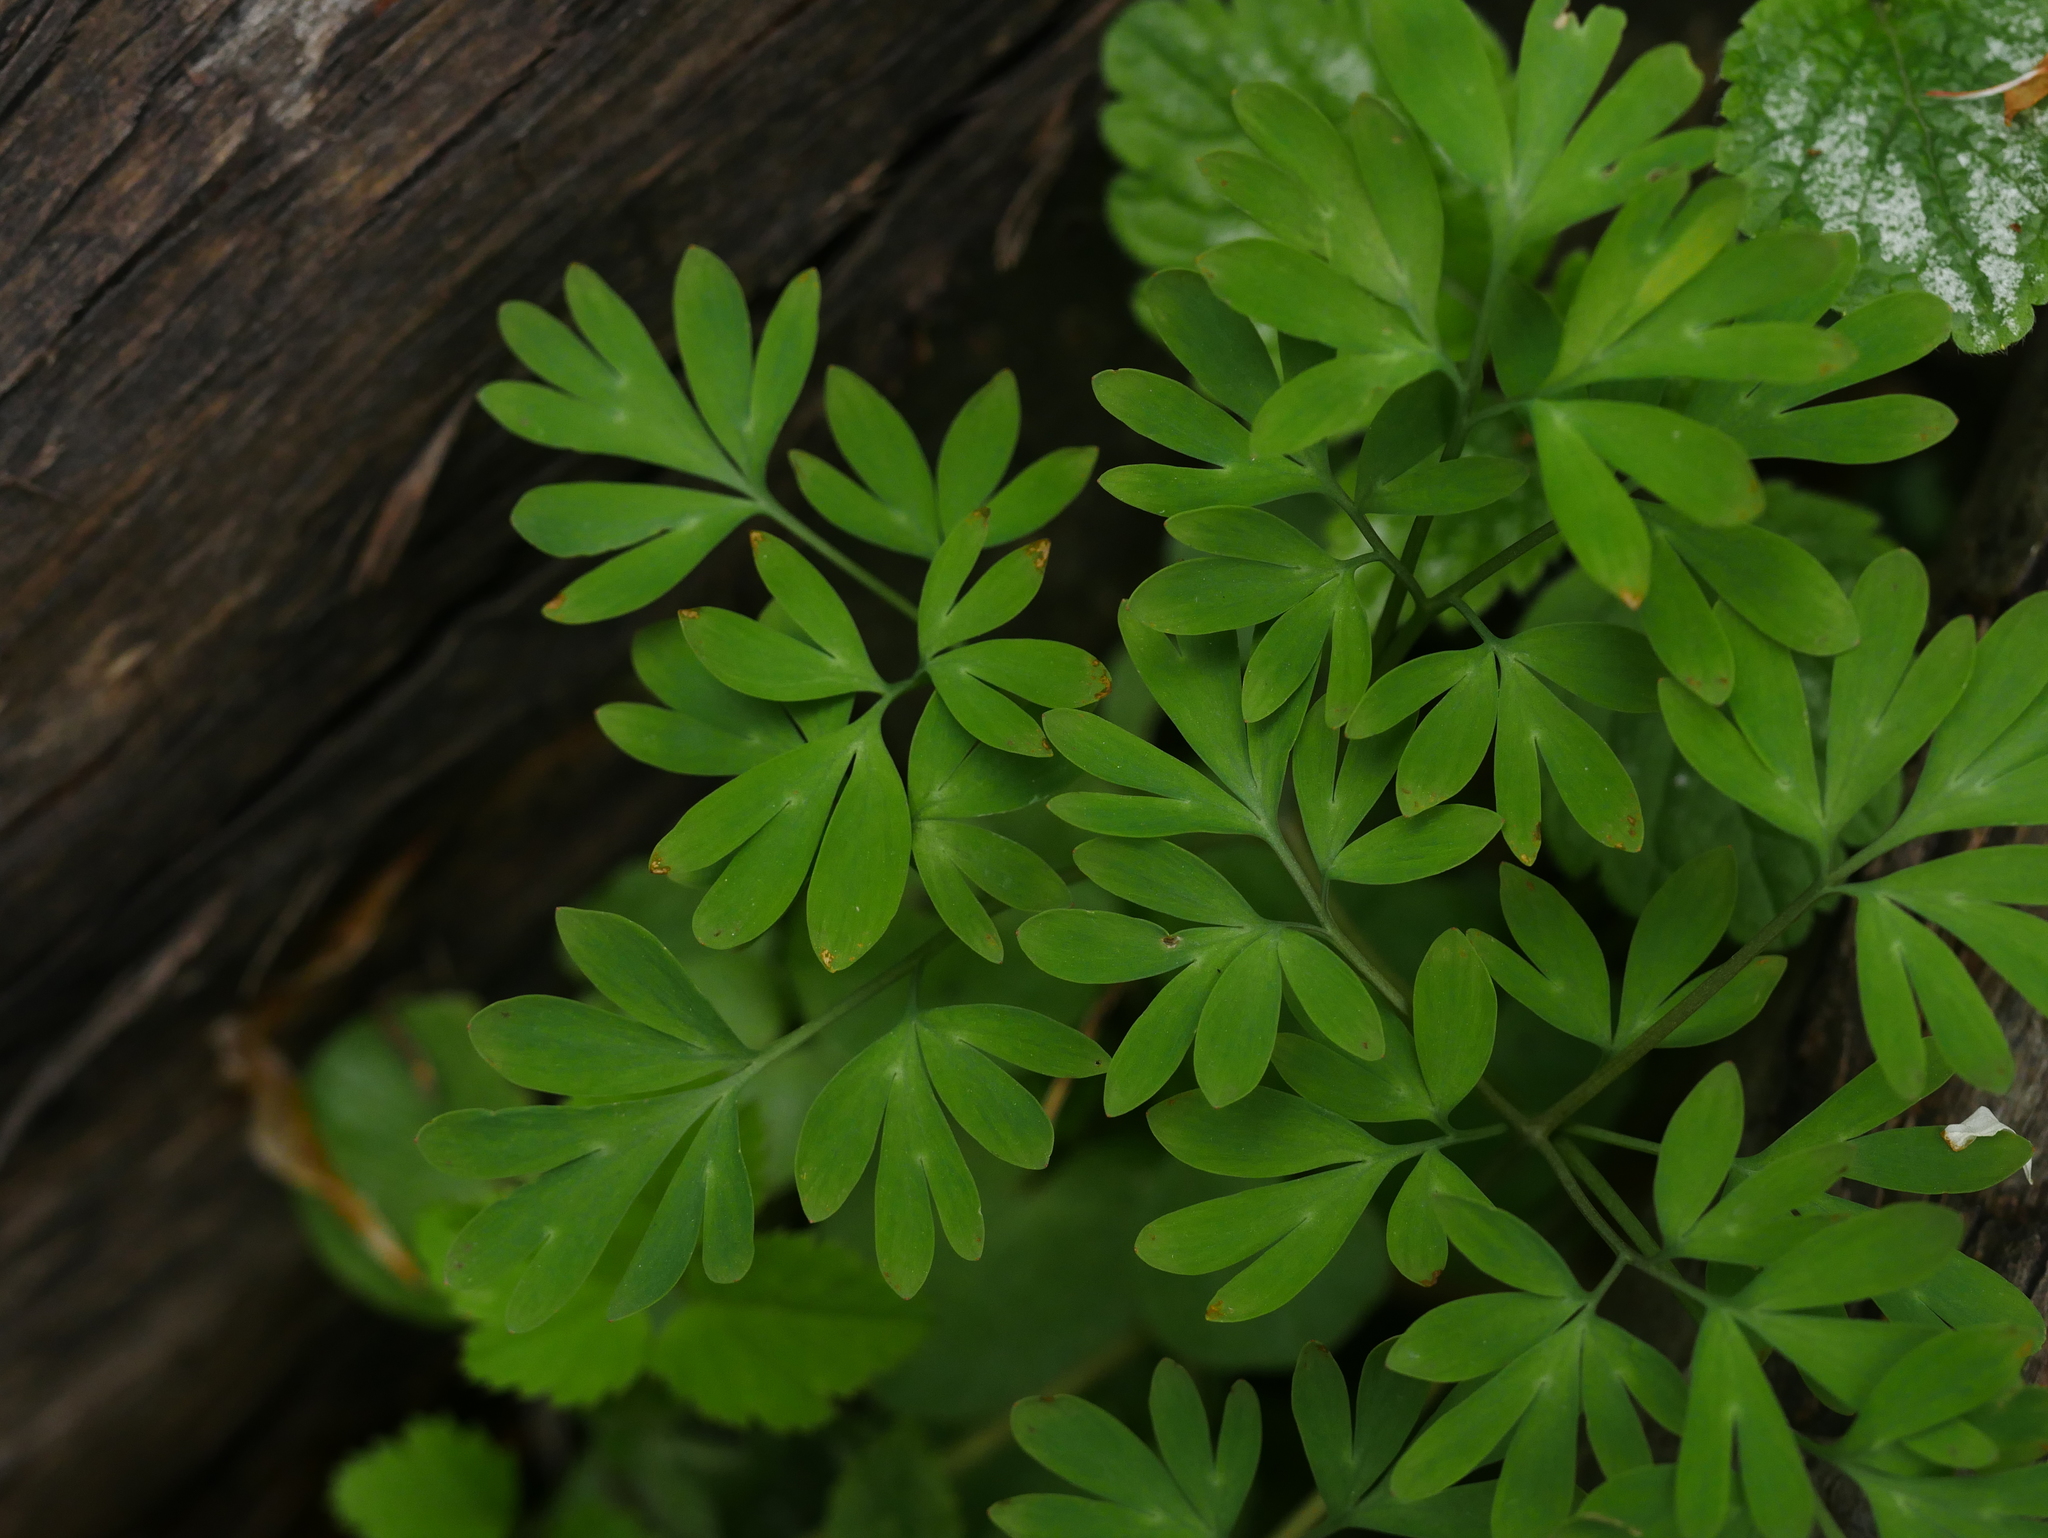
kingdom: Plantae
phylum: Tracheophyta
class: Magnoliopsida
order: Ranunculales
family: Papaveraceae
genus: Corydalis
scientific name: Corydalis solida
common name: Bird-in-a-bush
